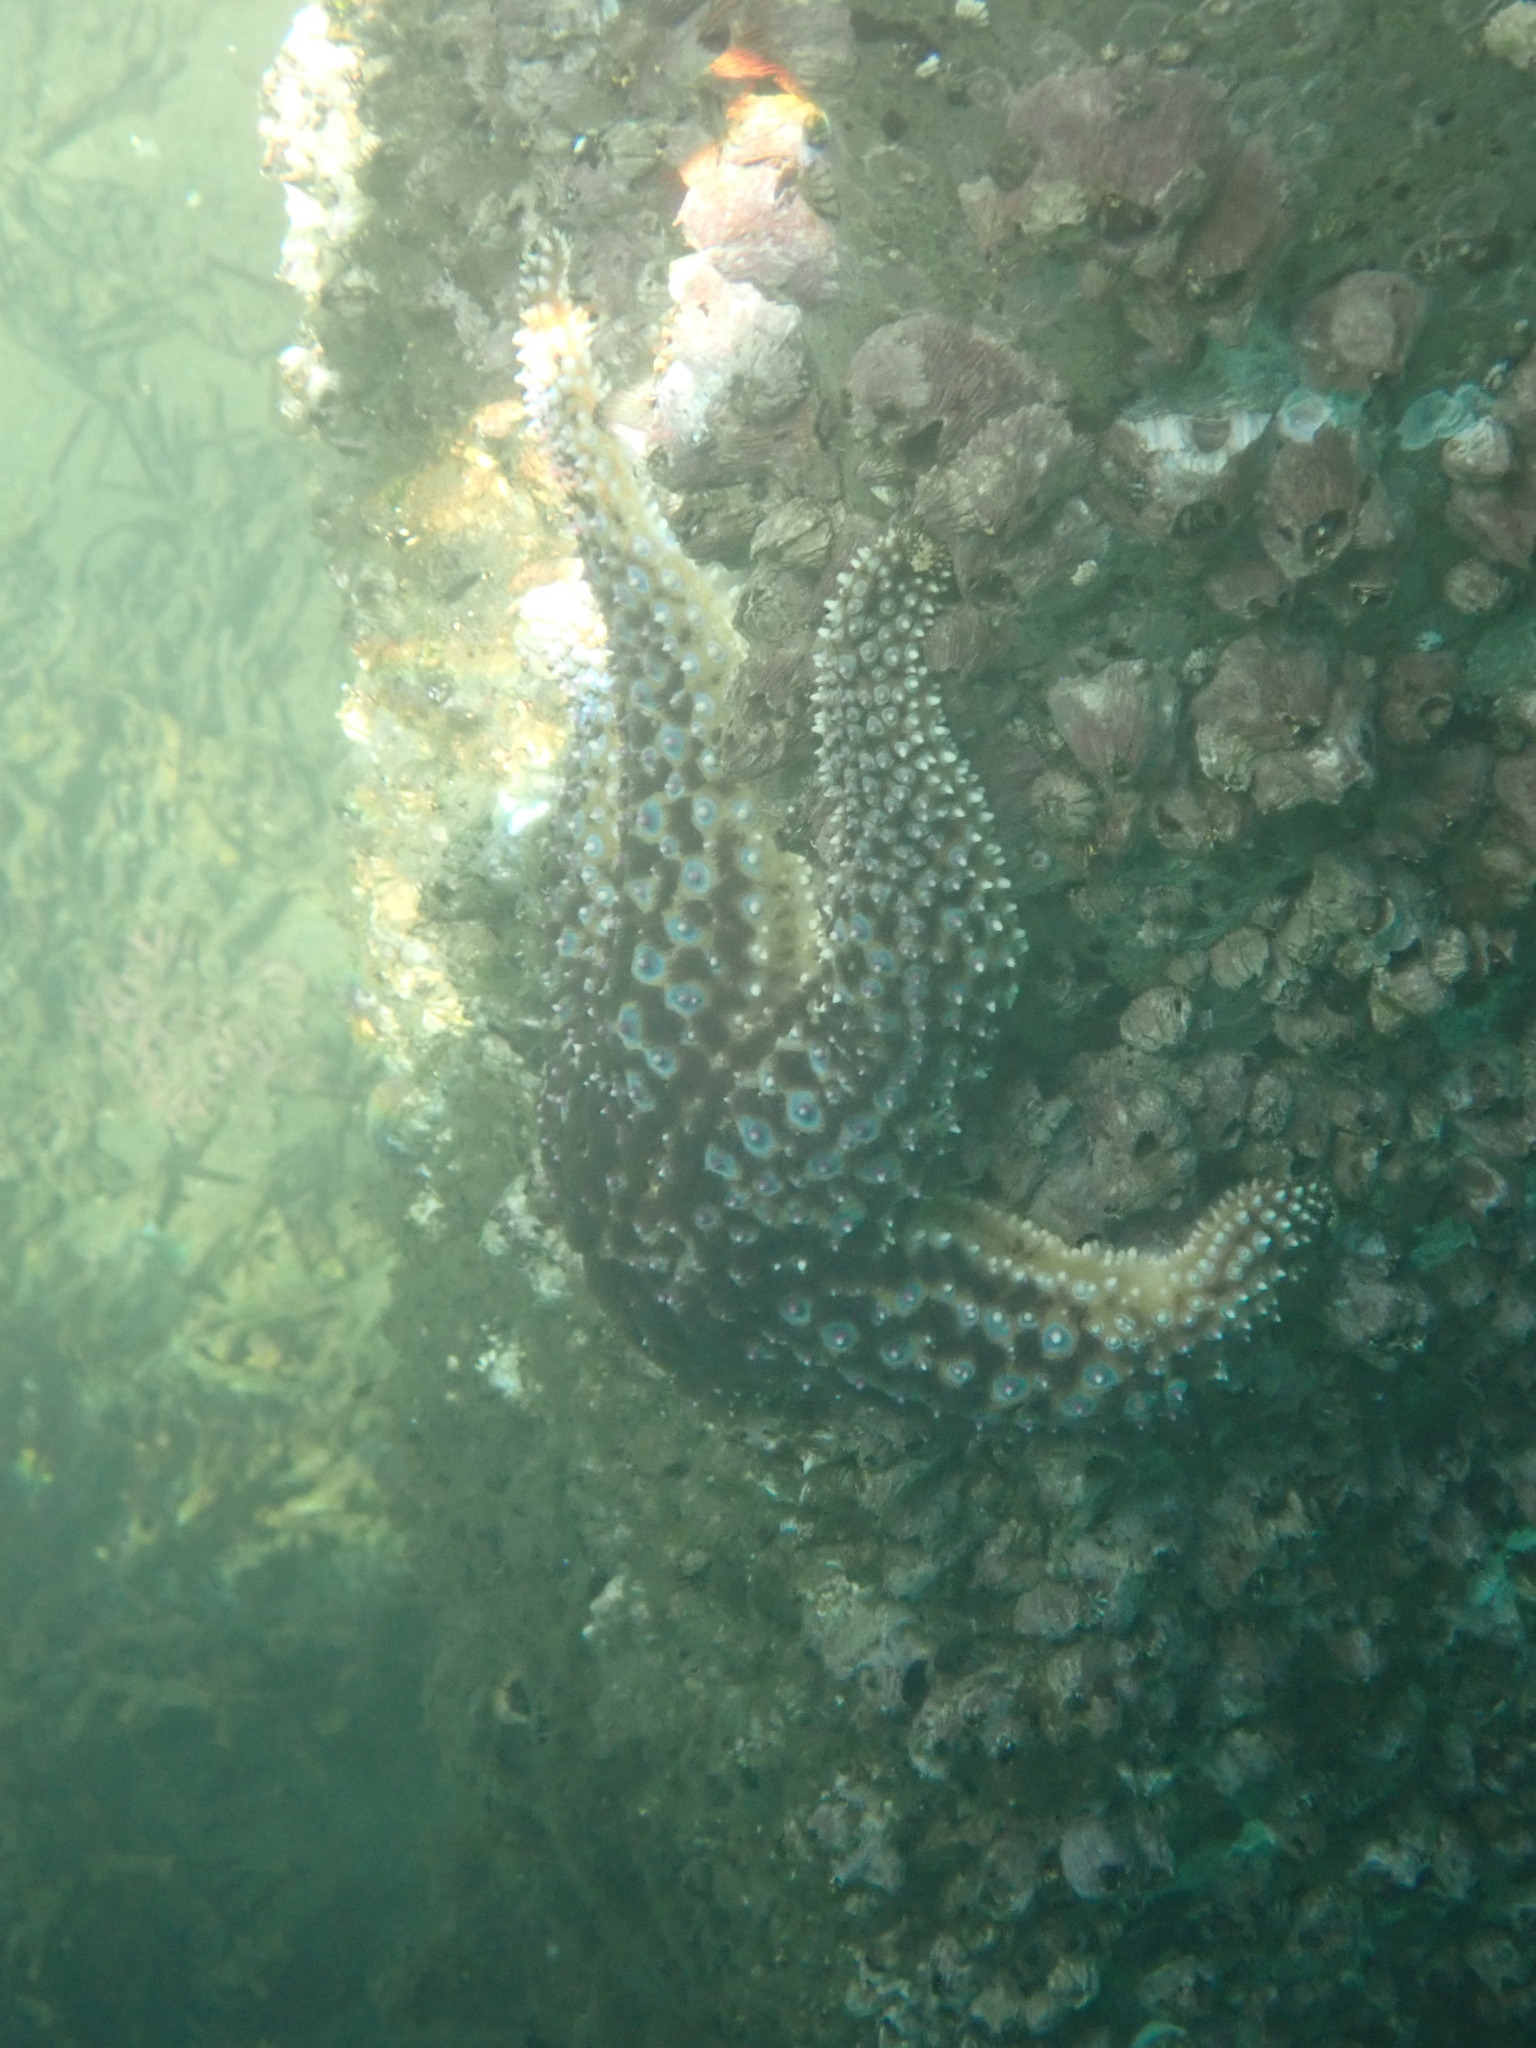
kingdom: Animalia
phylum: Echinodermata
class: Asteroidea
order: Forcipulatida
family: Asteriidae
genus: Pisaster
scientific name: Pisaster giganteus
